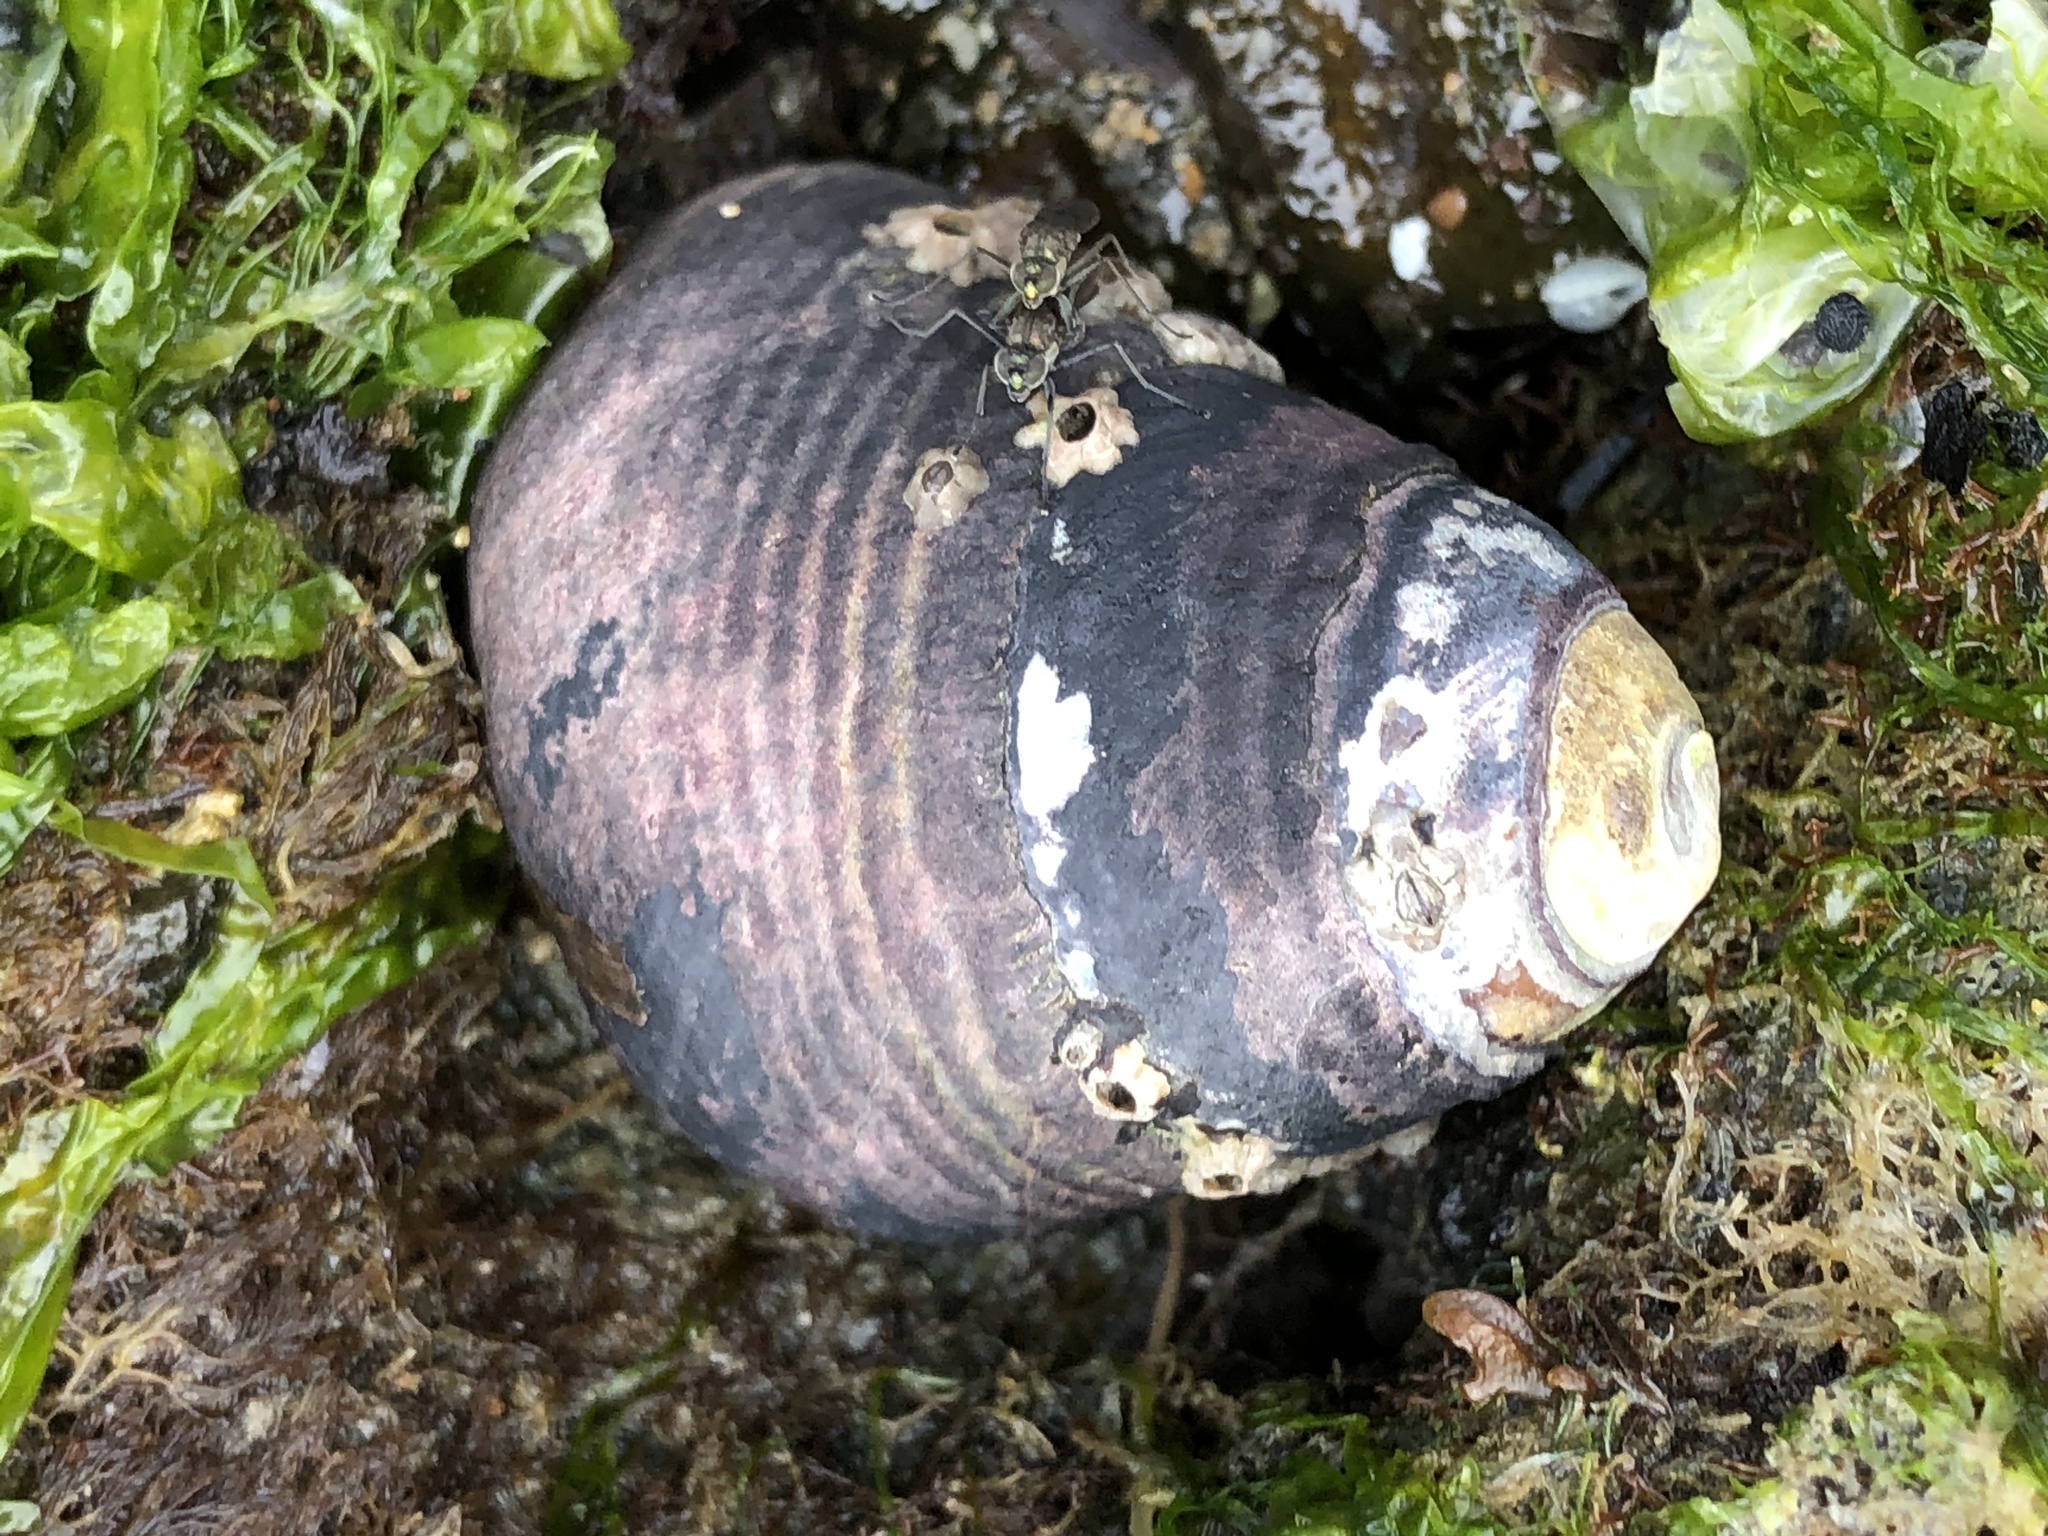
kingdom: Animalia
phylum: Mollusca
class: Gastropoda
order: Trochida
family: Tegulidae
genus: Tegula
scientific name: Tegula funebralis
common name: Black tegula
